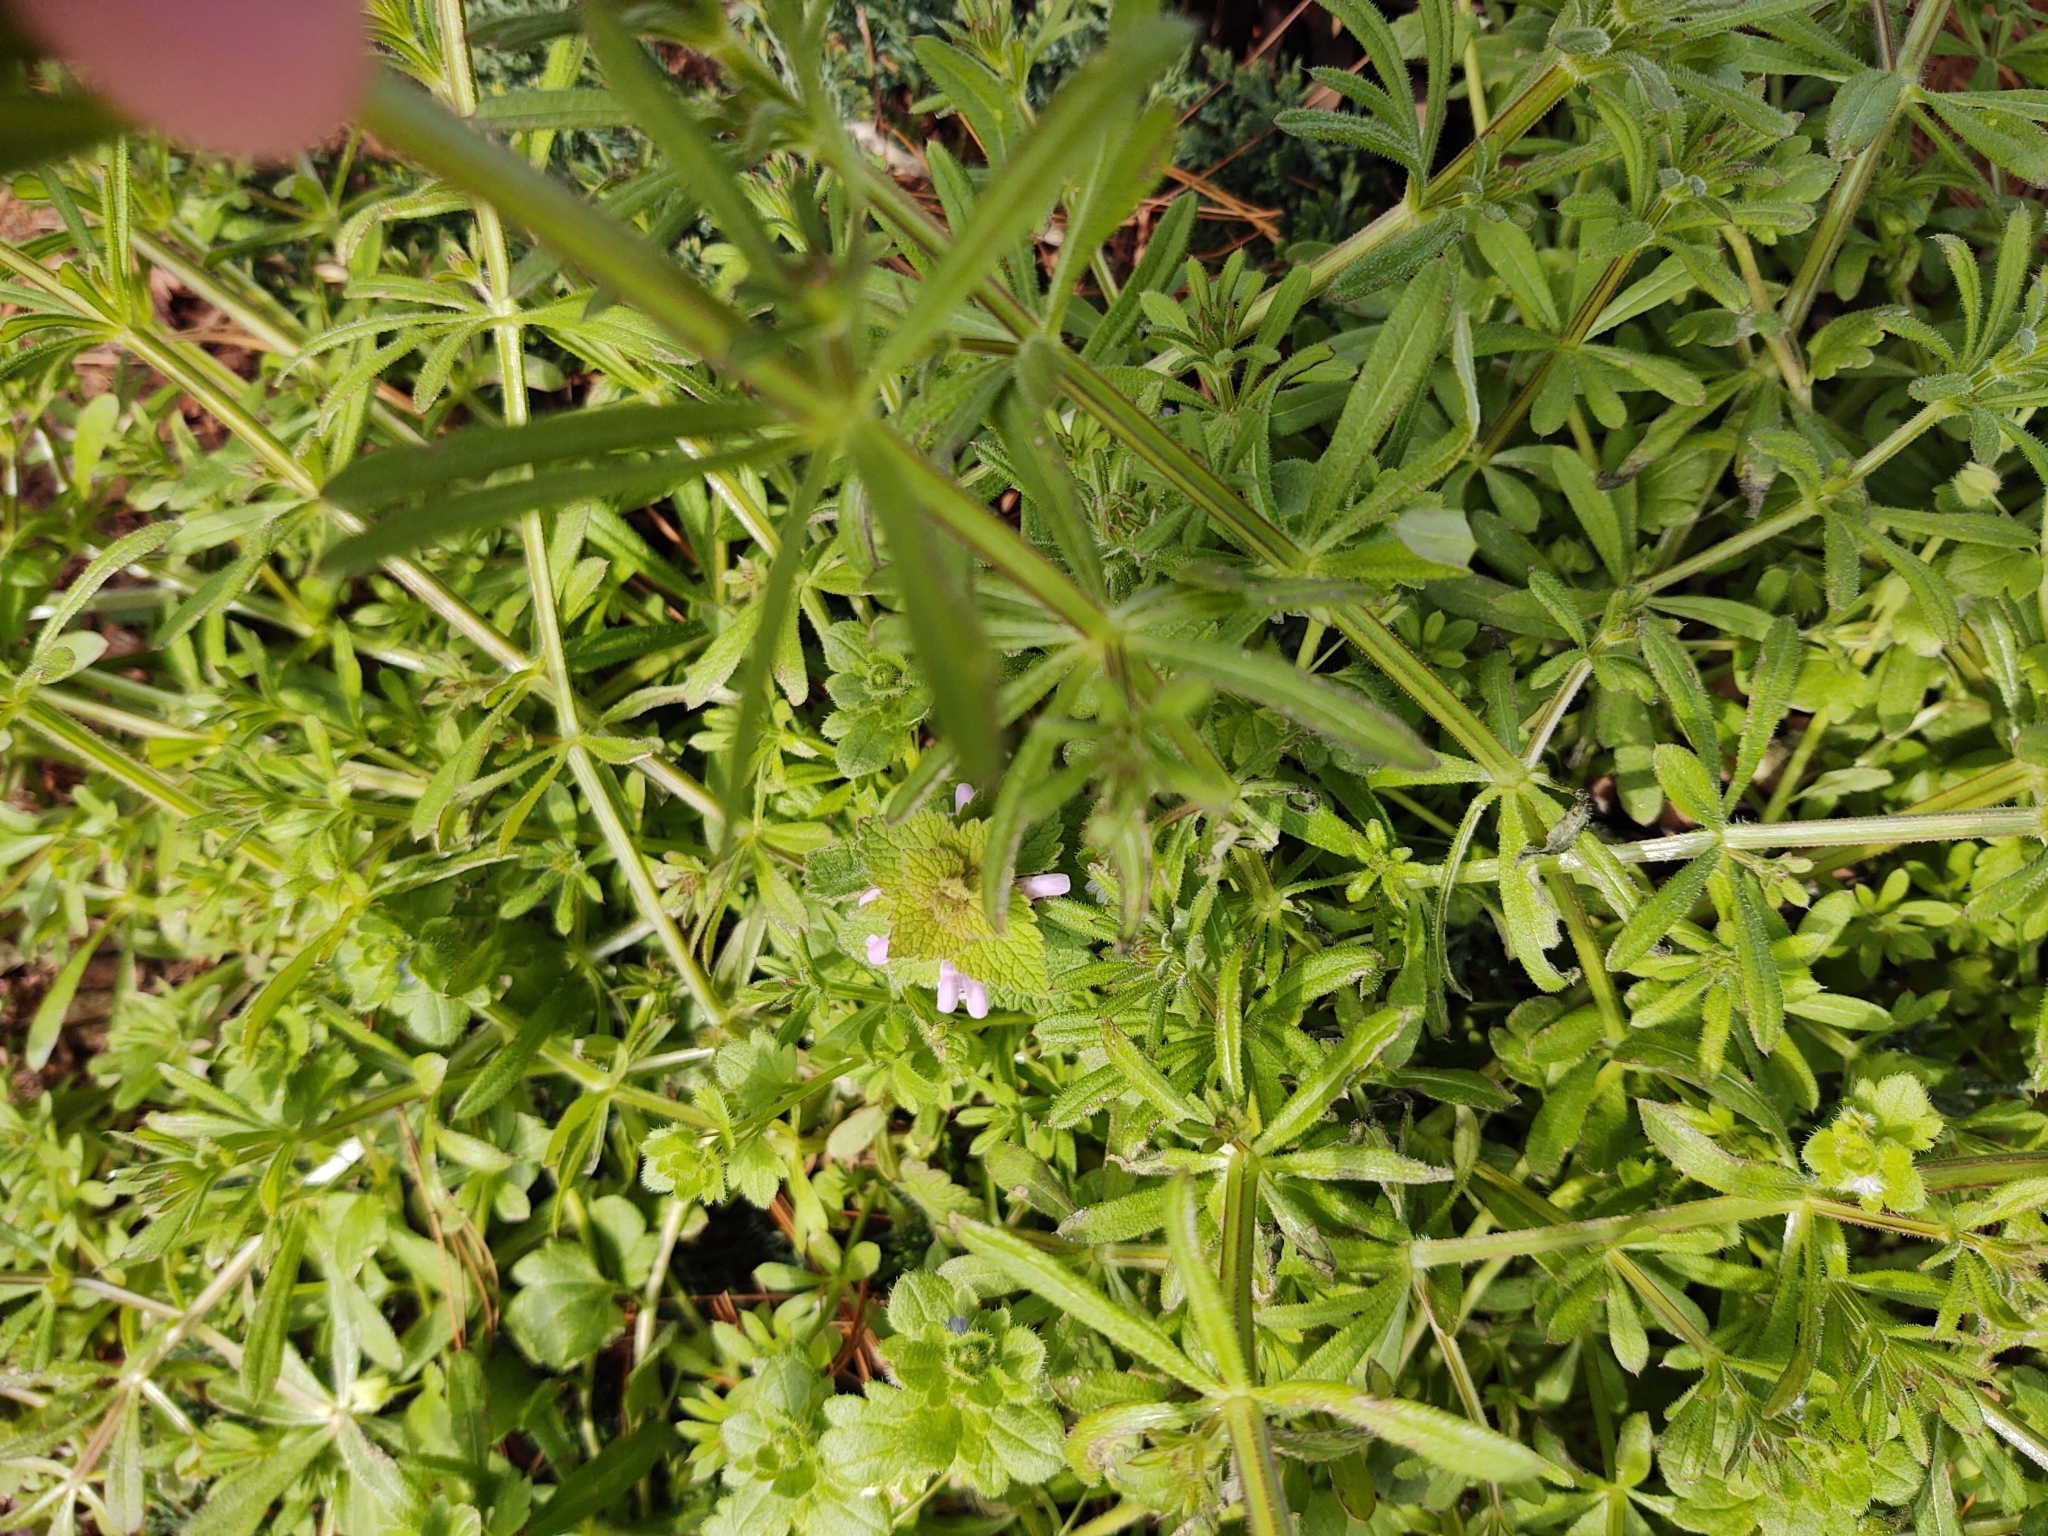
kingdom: Plantae
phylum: Tracheophyta
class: Magnoliopsida
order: Gentianales
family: Rubiaceae
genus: Galium
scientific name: Galium aparine
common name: Cleavers
